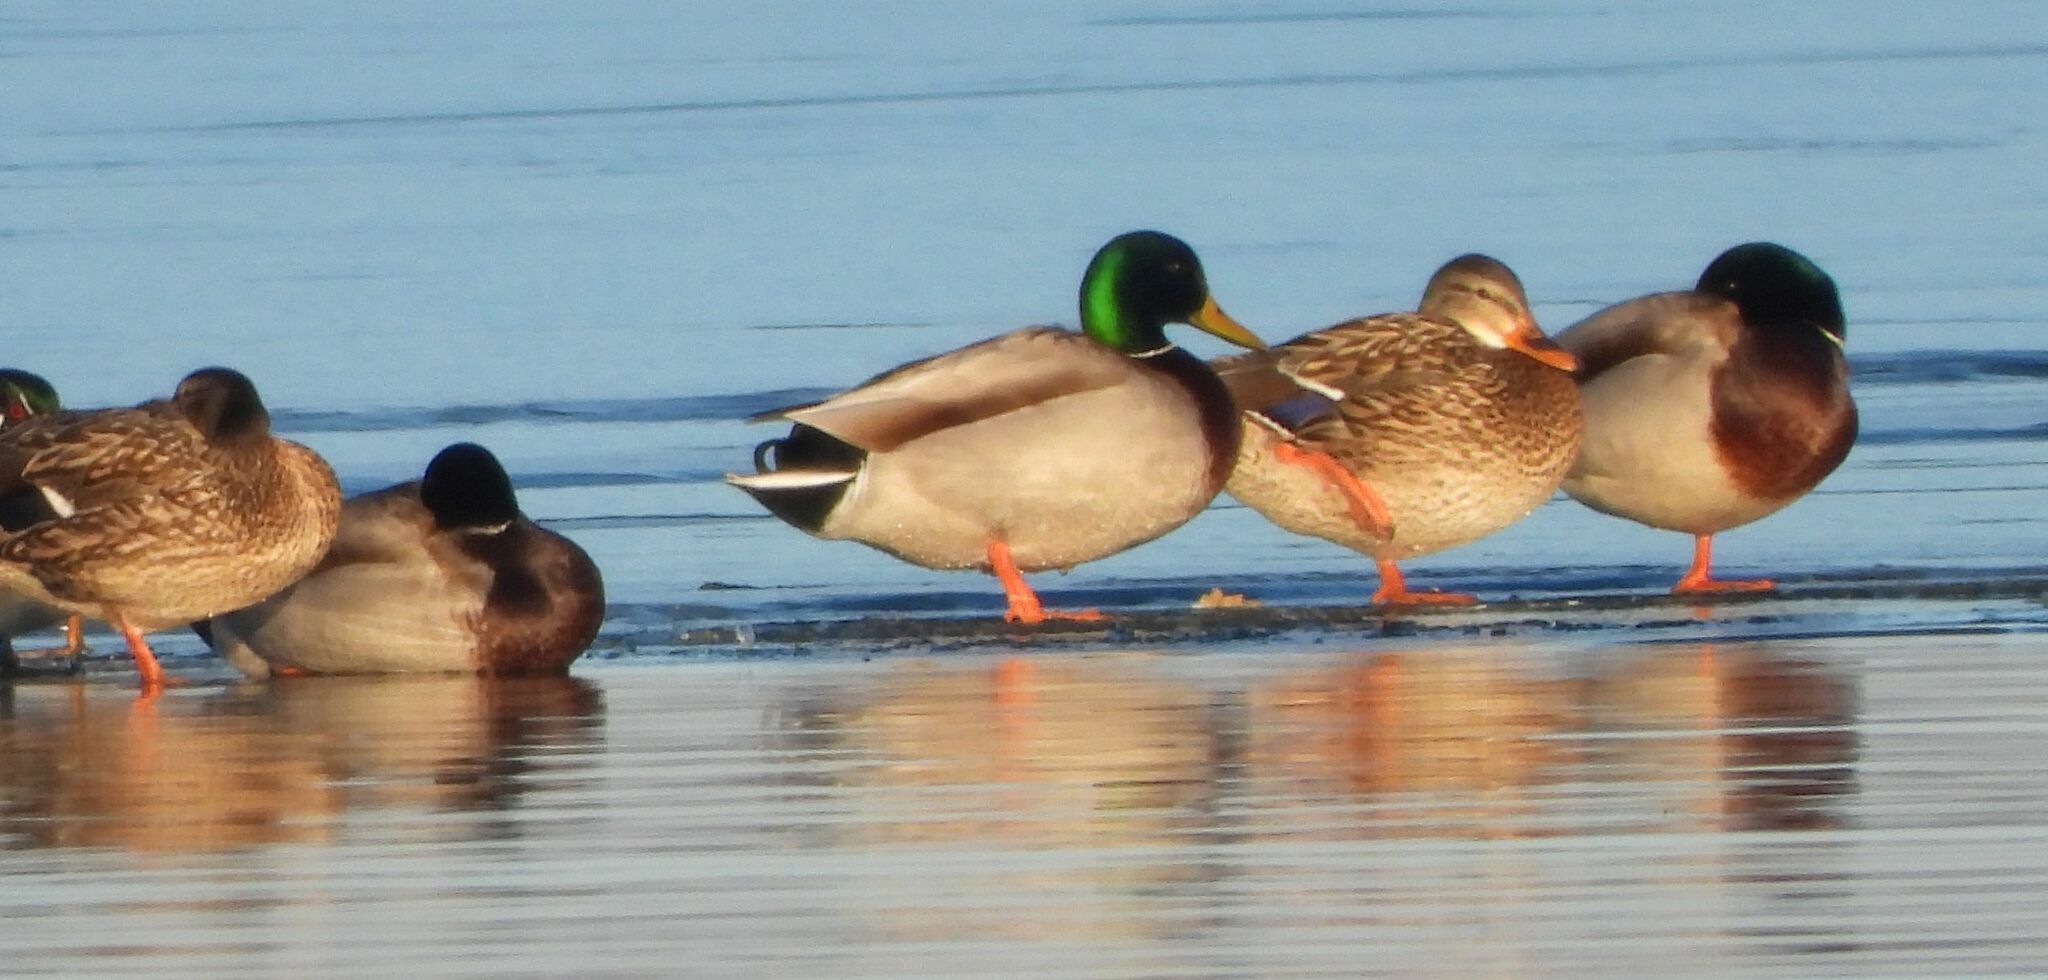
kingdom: Animalia
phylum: Chordata
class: Aves
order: Anseriformes
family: Anatidae
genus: Anas
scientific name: Anas platyrhynchos
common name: Mallard
